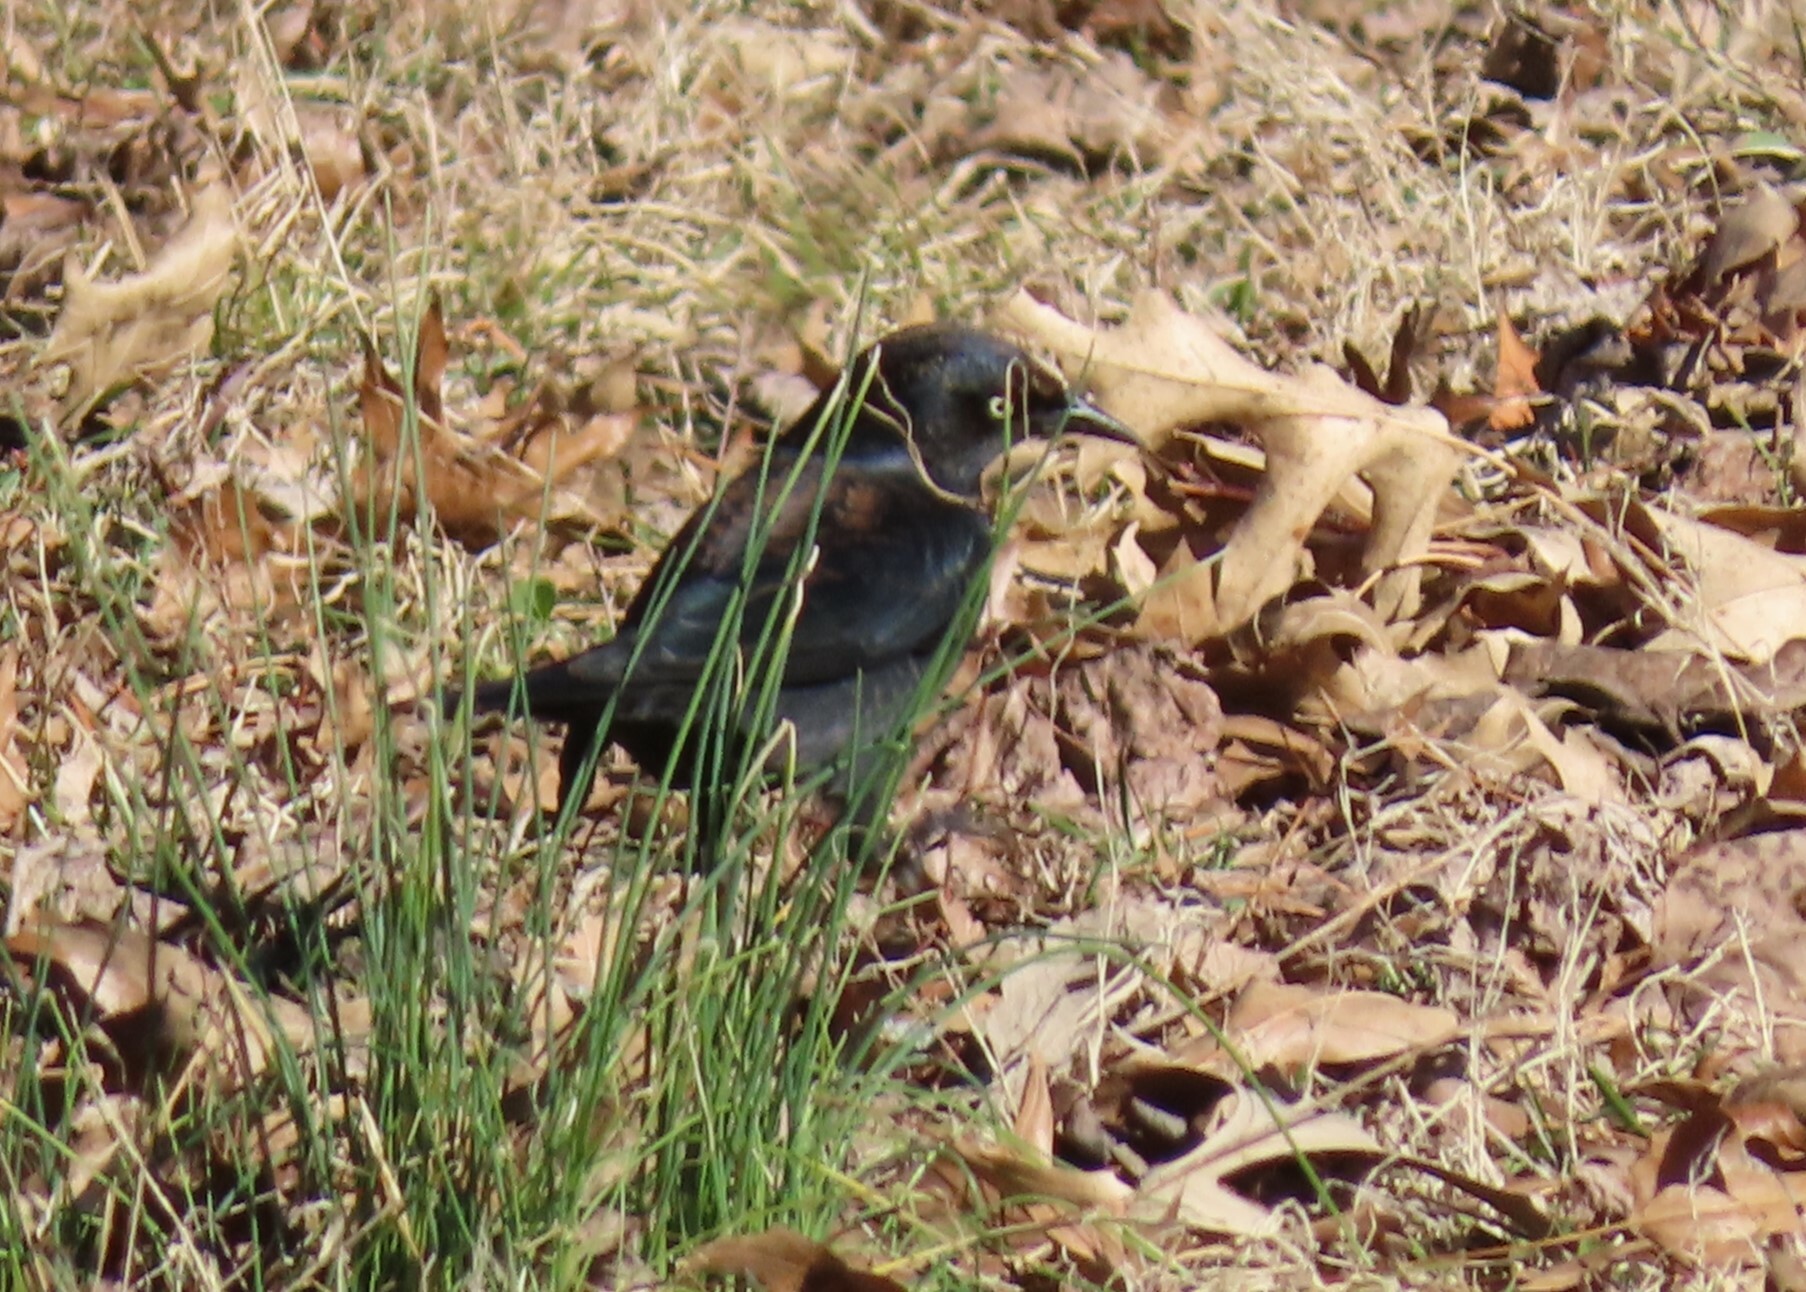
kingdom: Animalia
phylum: Chordata
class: Aves
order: Passeriformes
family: Icteridae
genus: Euphagus
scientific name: Euphagus carolinus
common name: Rusty blackbird
